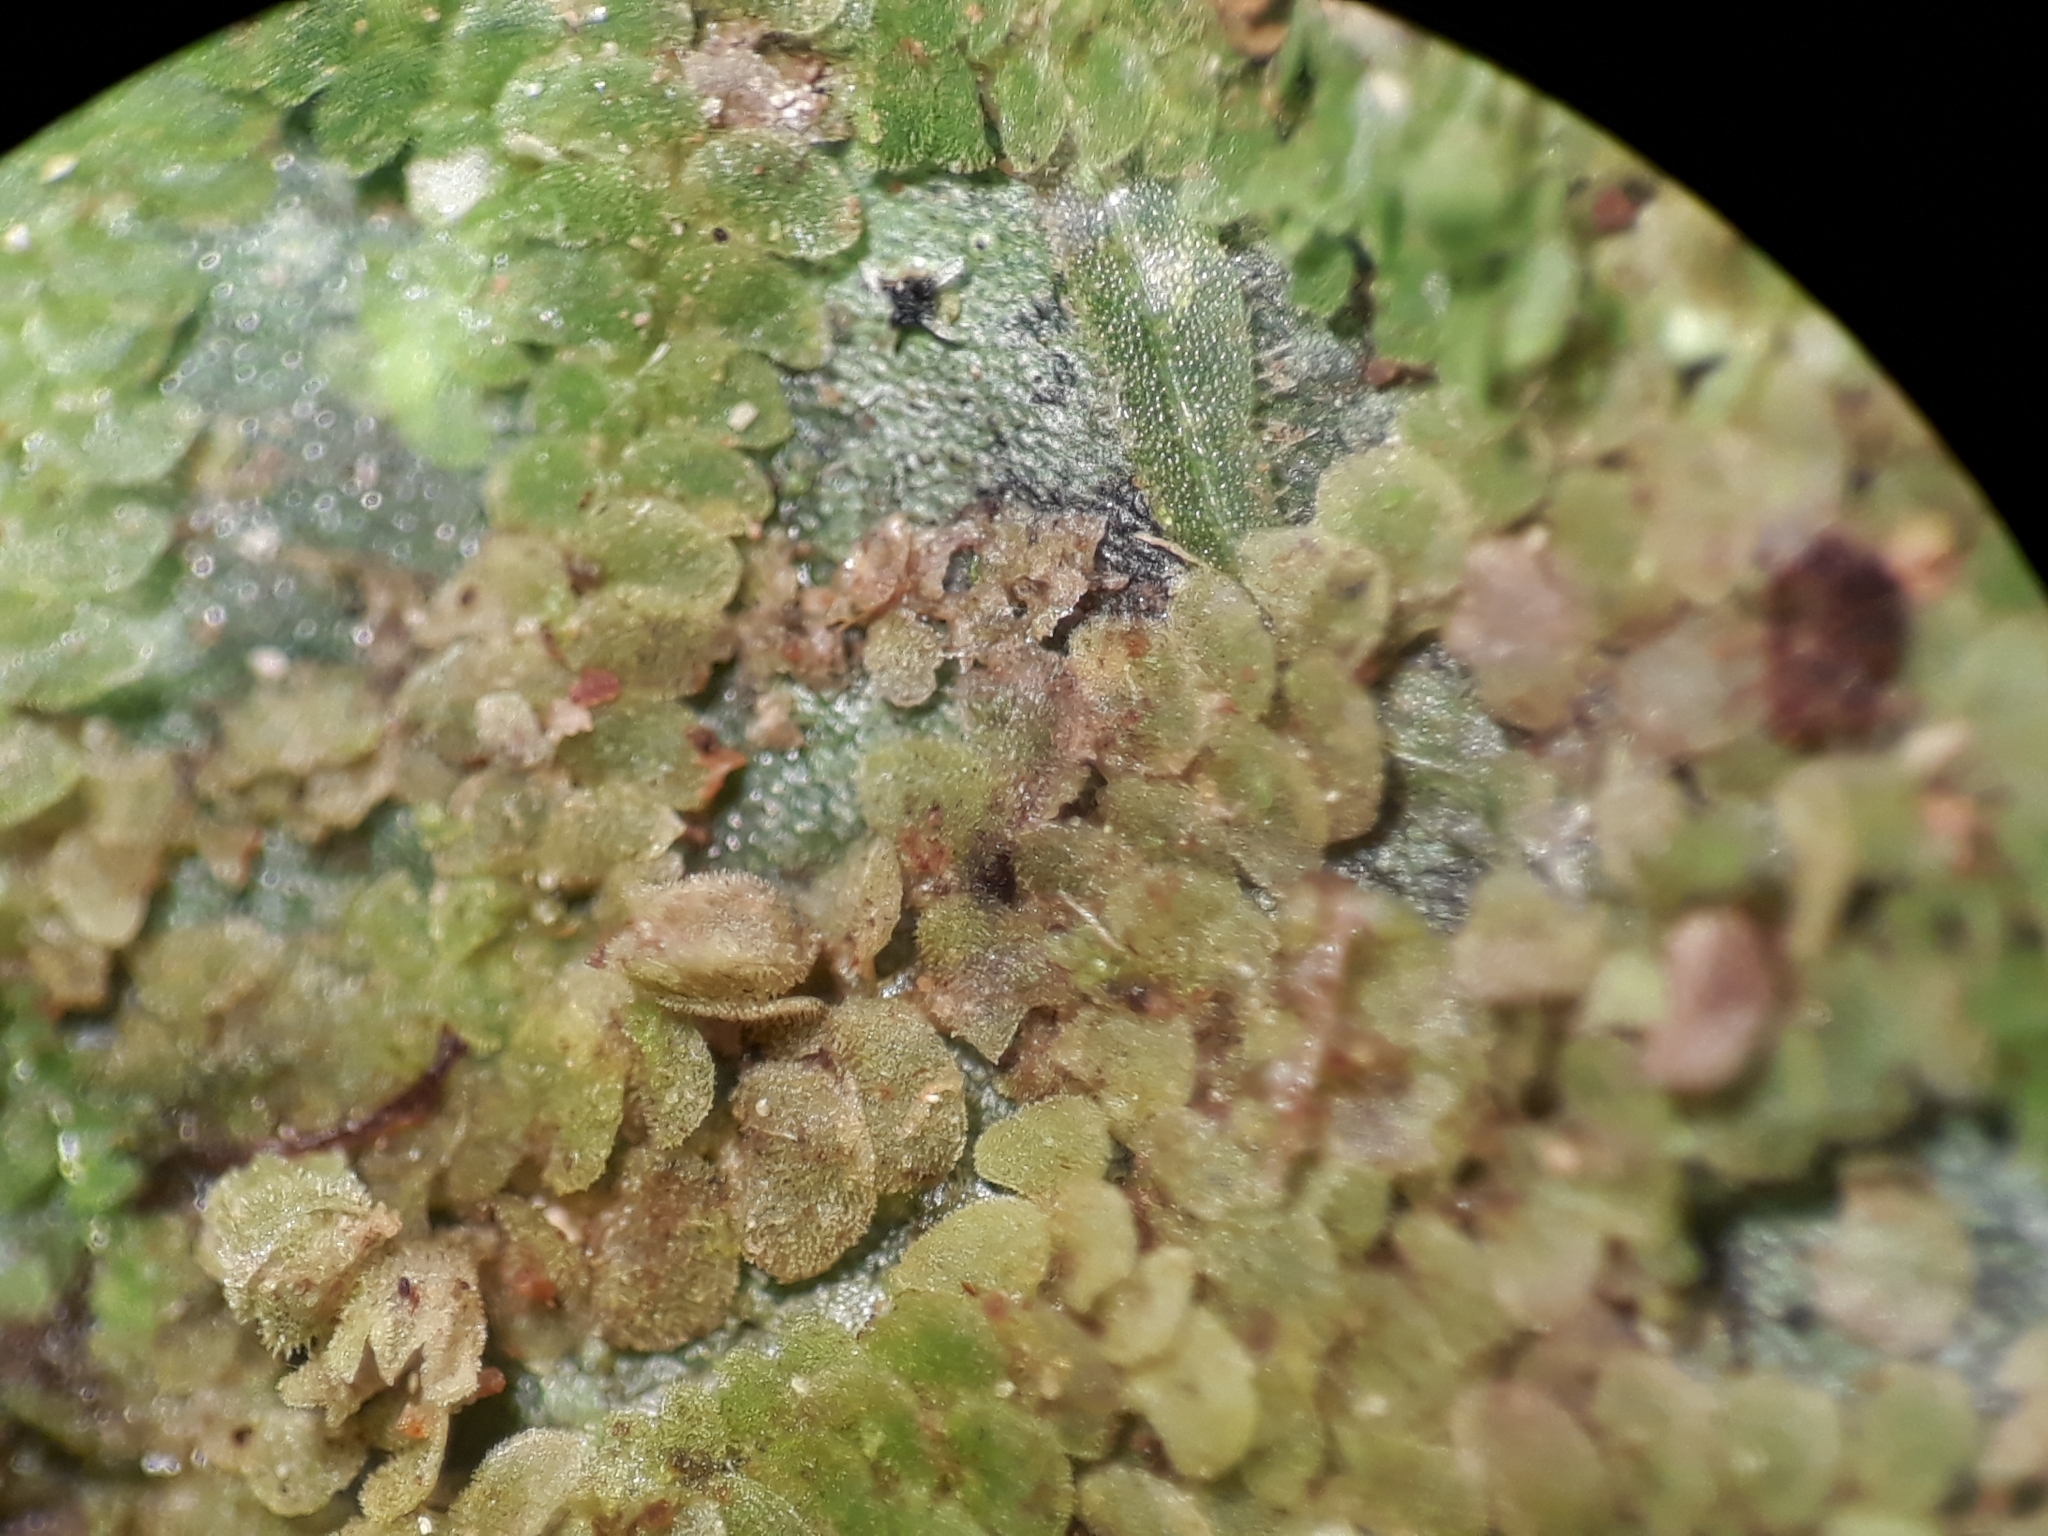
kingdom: Plantae
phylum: Marchantiophyta
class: Jungermanniopsida
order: Porellales
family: Lejeuneaceae
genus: Echinolejeunea
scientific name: Echinolejeunea papillata
